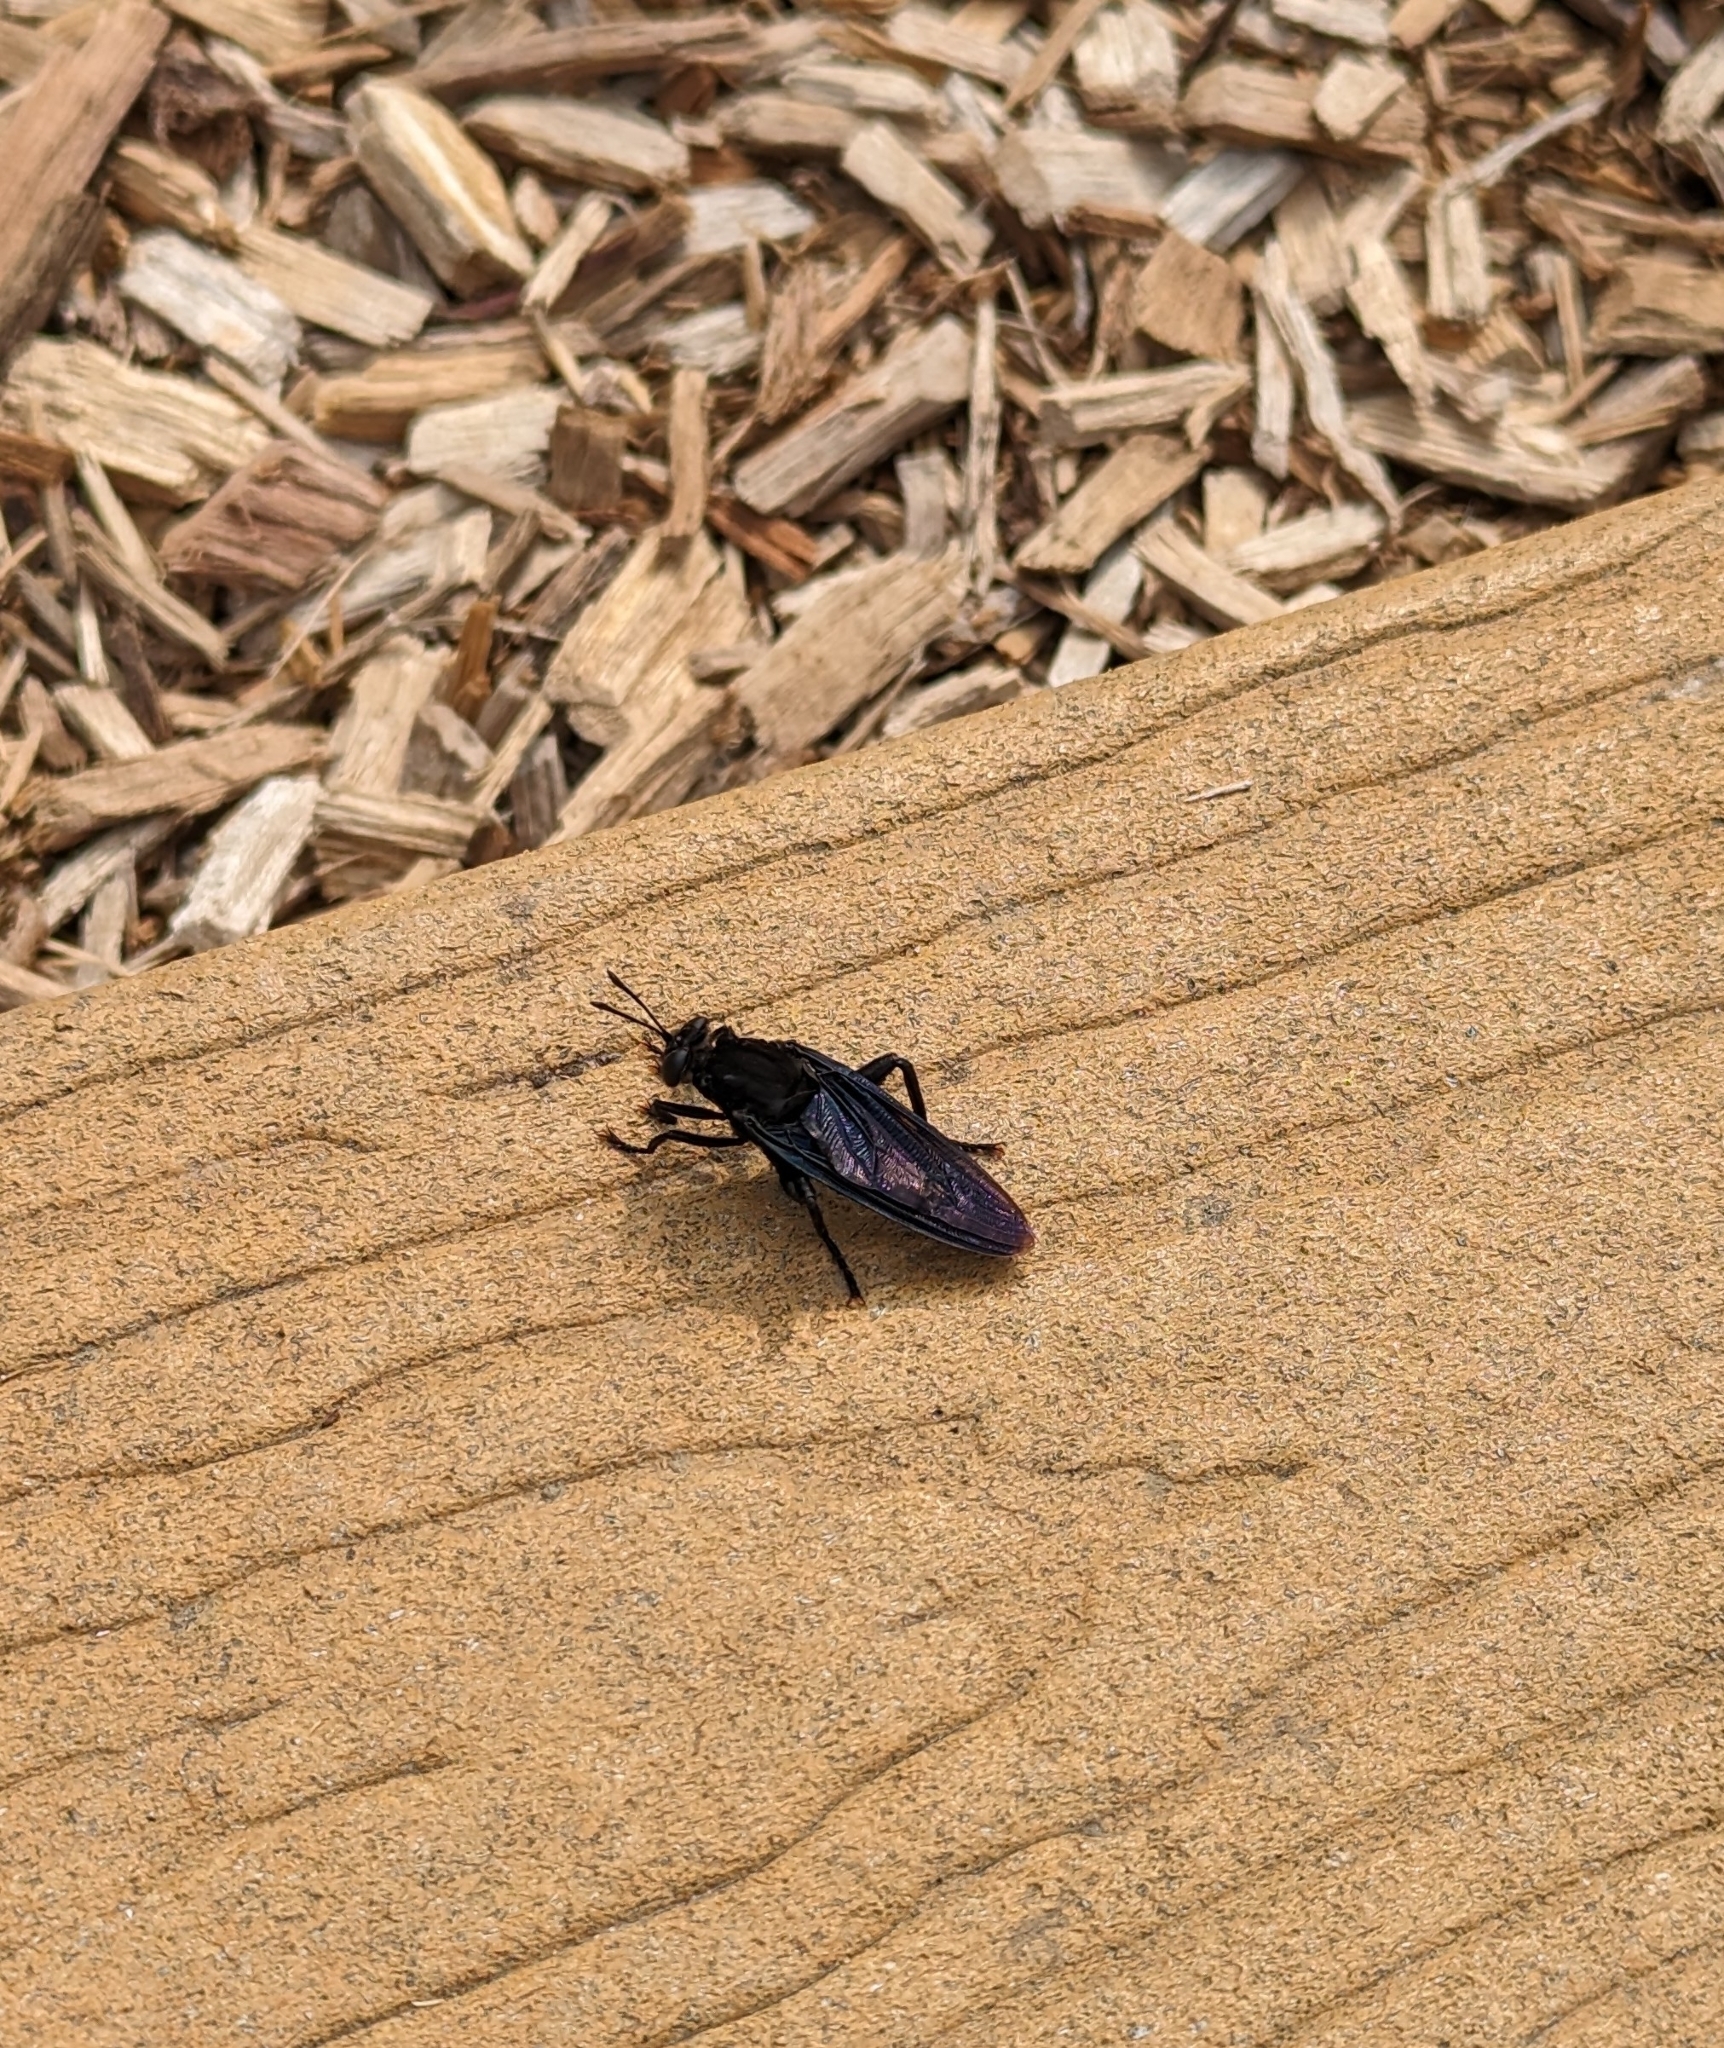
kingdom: Animalia
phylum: Arthropoda
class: Insecta
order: Diptera
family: Mydidae
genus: Mydas
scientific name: Mydas clavatus
